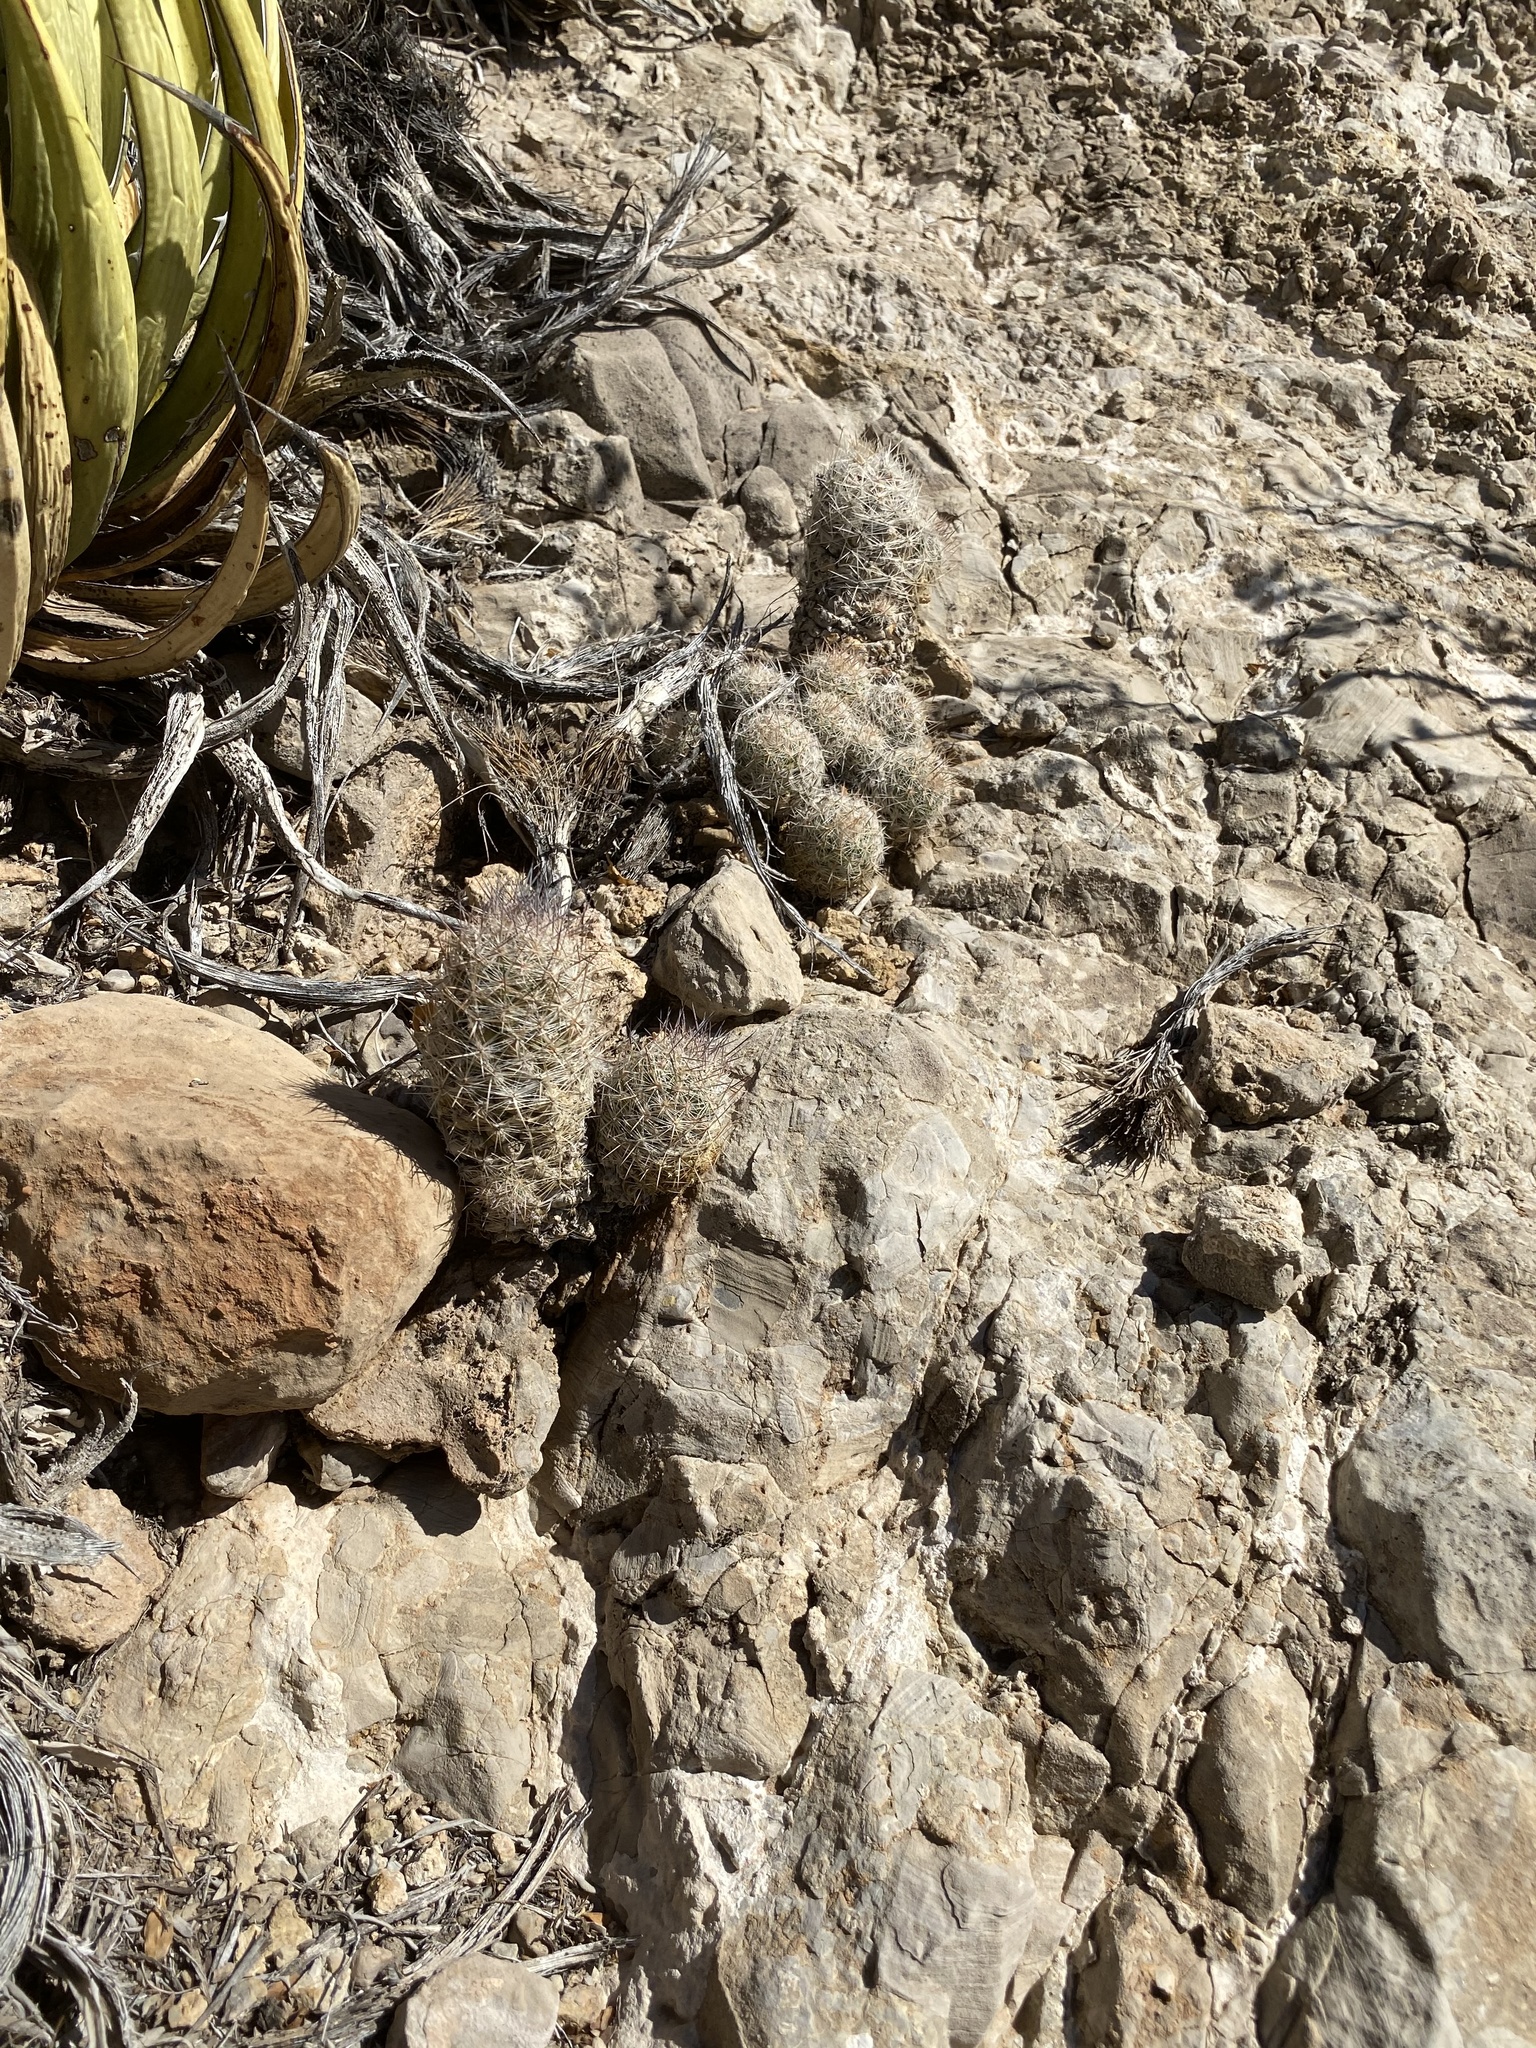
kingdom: Plantae
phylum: Tracheophyta
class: Magnoliopsida
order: Caryophyllales
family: Cactaceae
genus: Pelecyphora
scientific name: Pelecyphora tuberculosa
